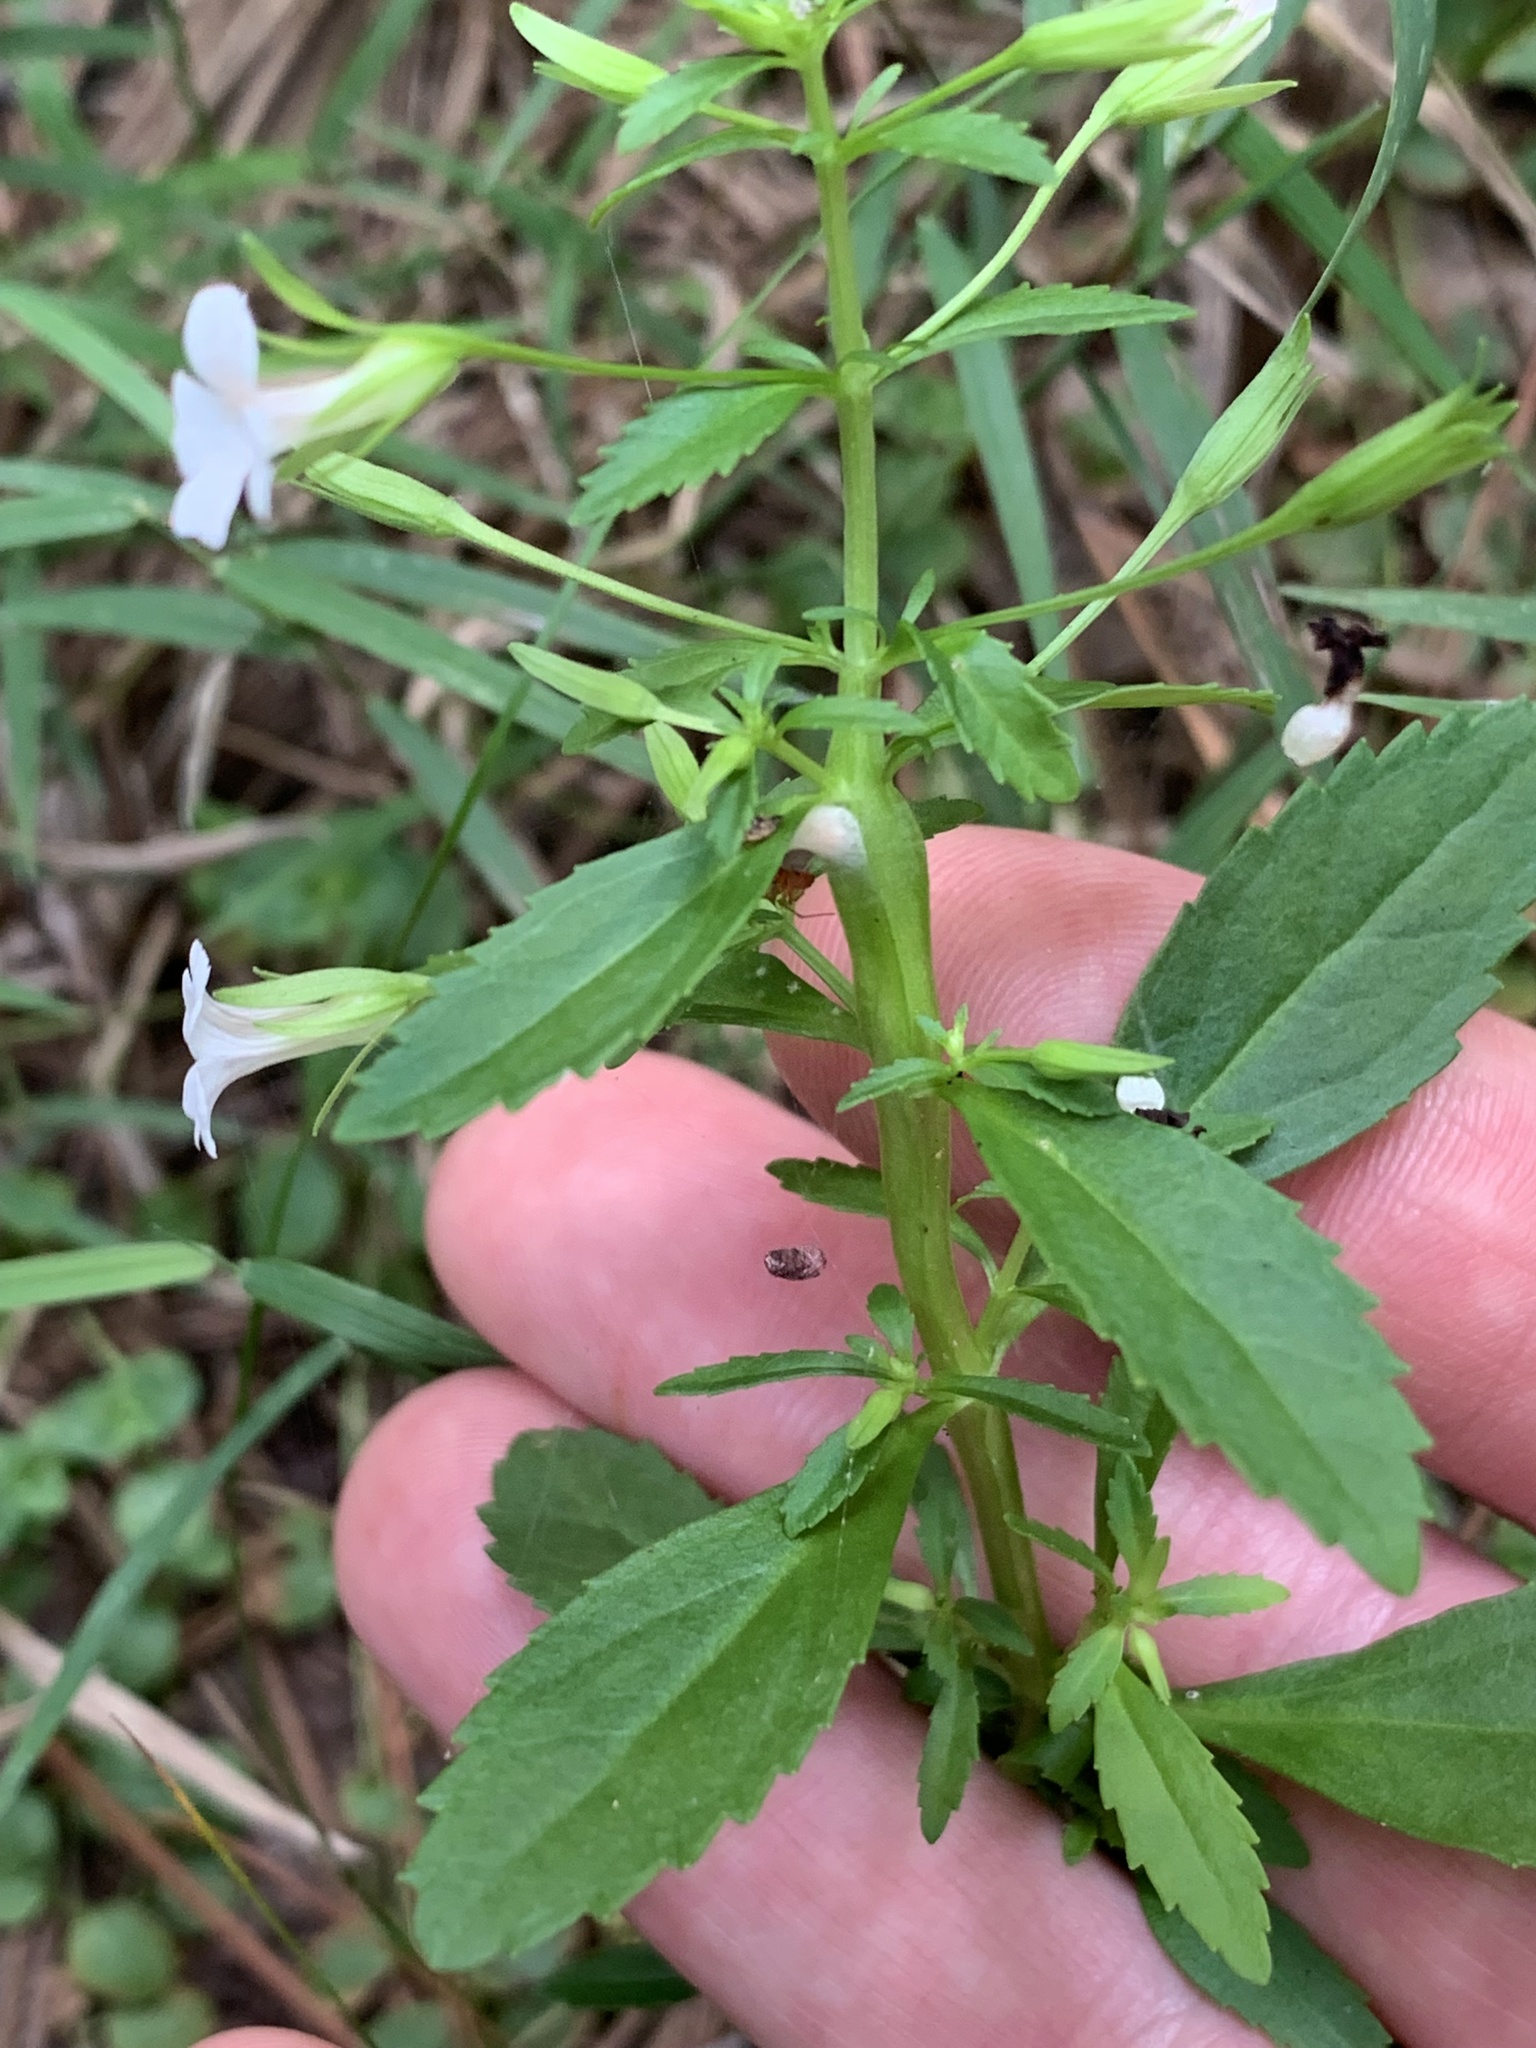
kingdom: Plantae
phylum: Tracheophyta
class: Magnoliopsida
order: Lamiales
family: Plantaginaceae
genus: Mecardonia
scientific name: Mecardonia acuminata
